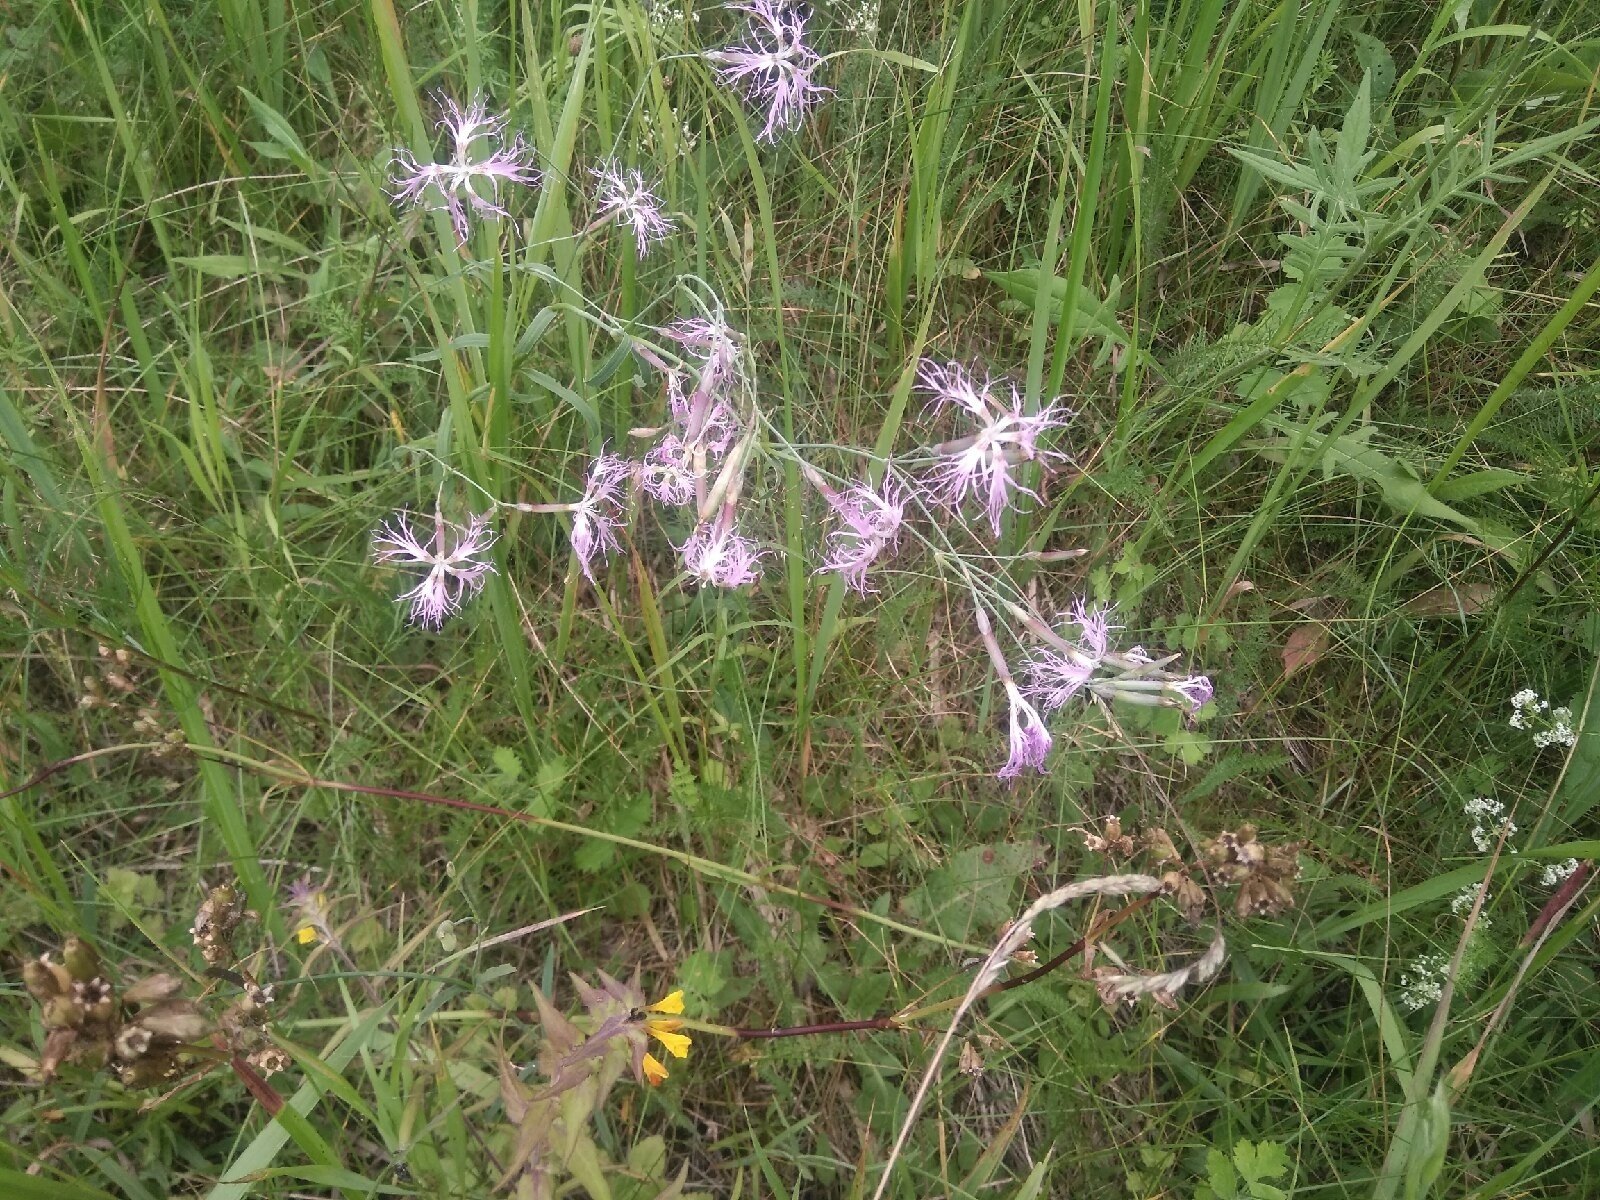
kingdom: Plantae
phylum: Tracheophyta
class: Magnoliopsida
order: Caryophyllales
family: Caryophyllaceae
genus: Dianthus
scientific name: Dianthus superbus
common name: Fringed pink
